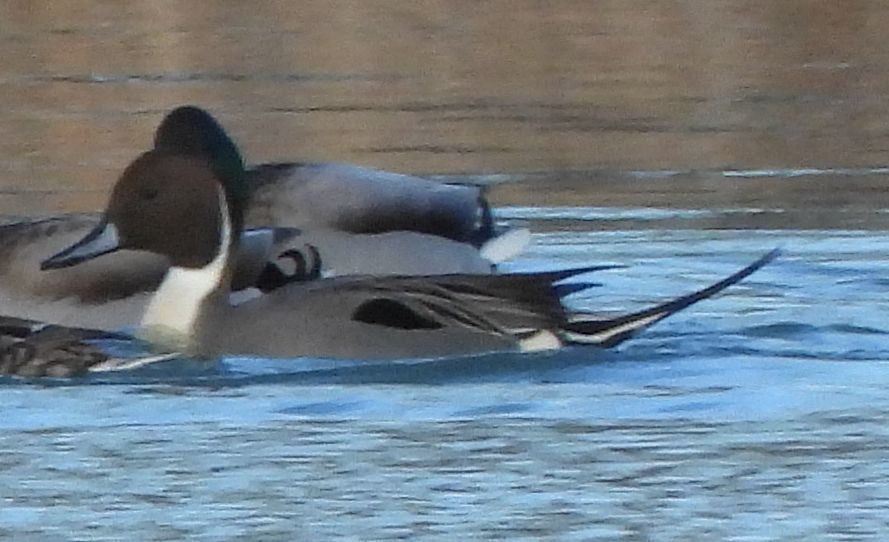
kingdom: Animalia
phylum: Chordata
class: Aves
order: Anseriformes
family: Anatidae
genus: Anas
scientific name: Anas acuta
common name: Northern pintail
